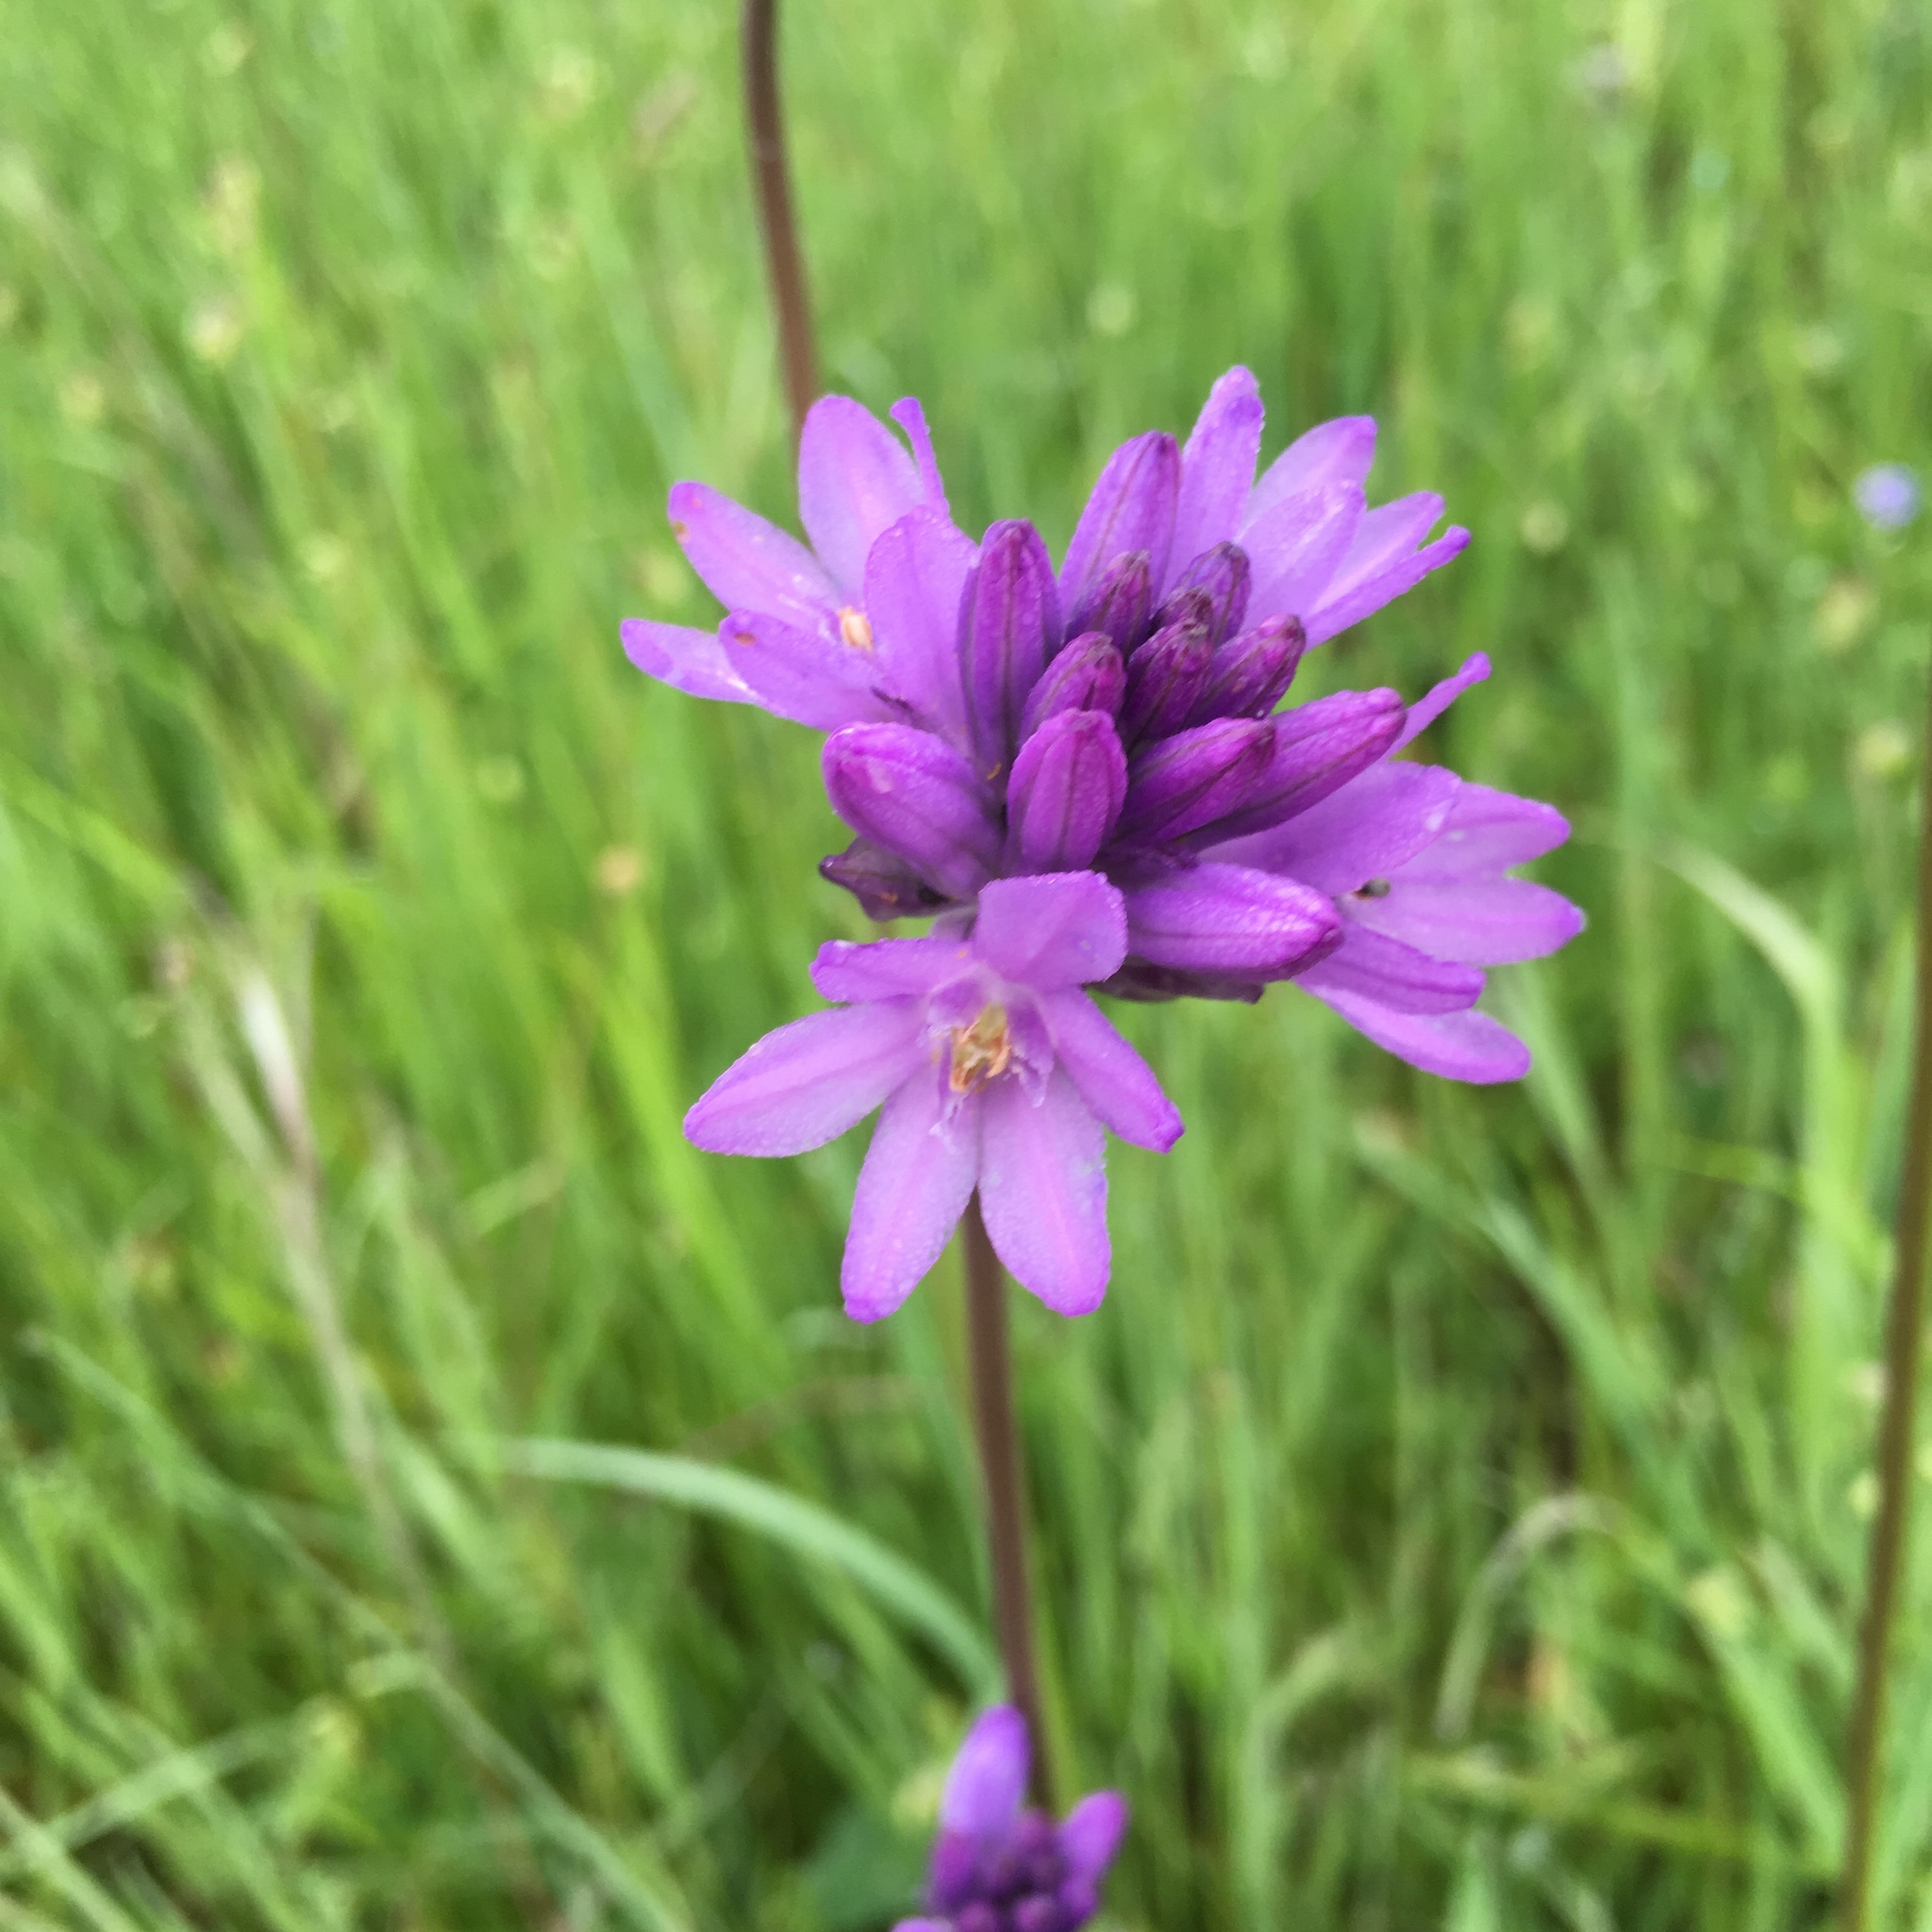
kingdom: Plantae
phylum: Tracheophyta
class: Liliopsida
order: Asparagales
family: Asparagaceae
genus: Dichelostemma
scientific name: Dichelostemma congestum
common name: Fork-tooth ookow
